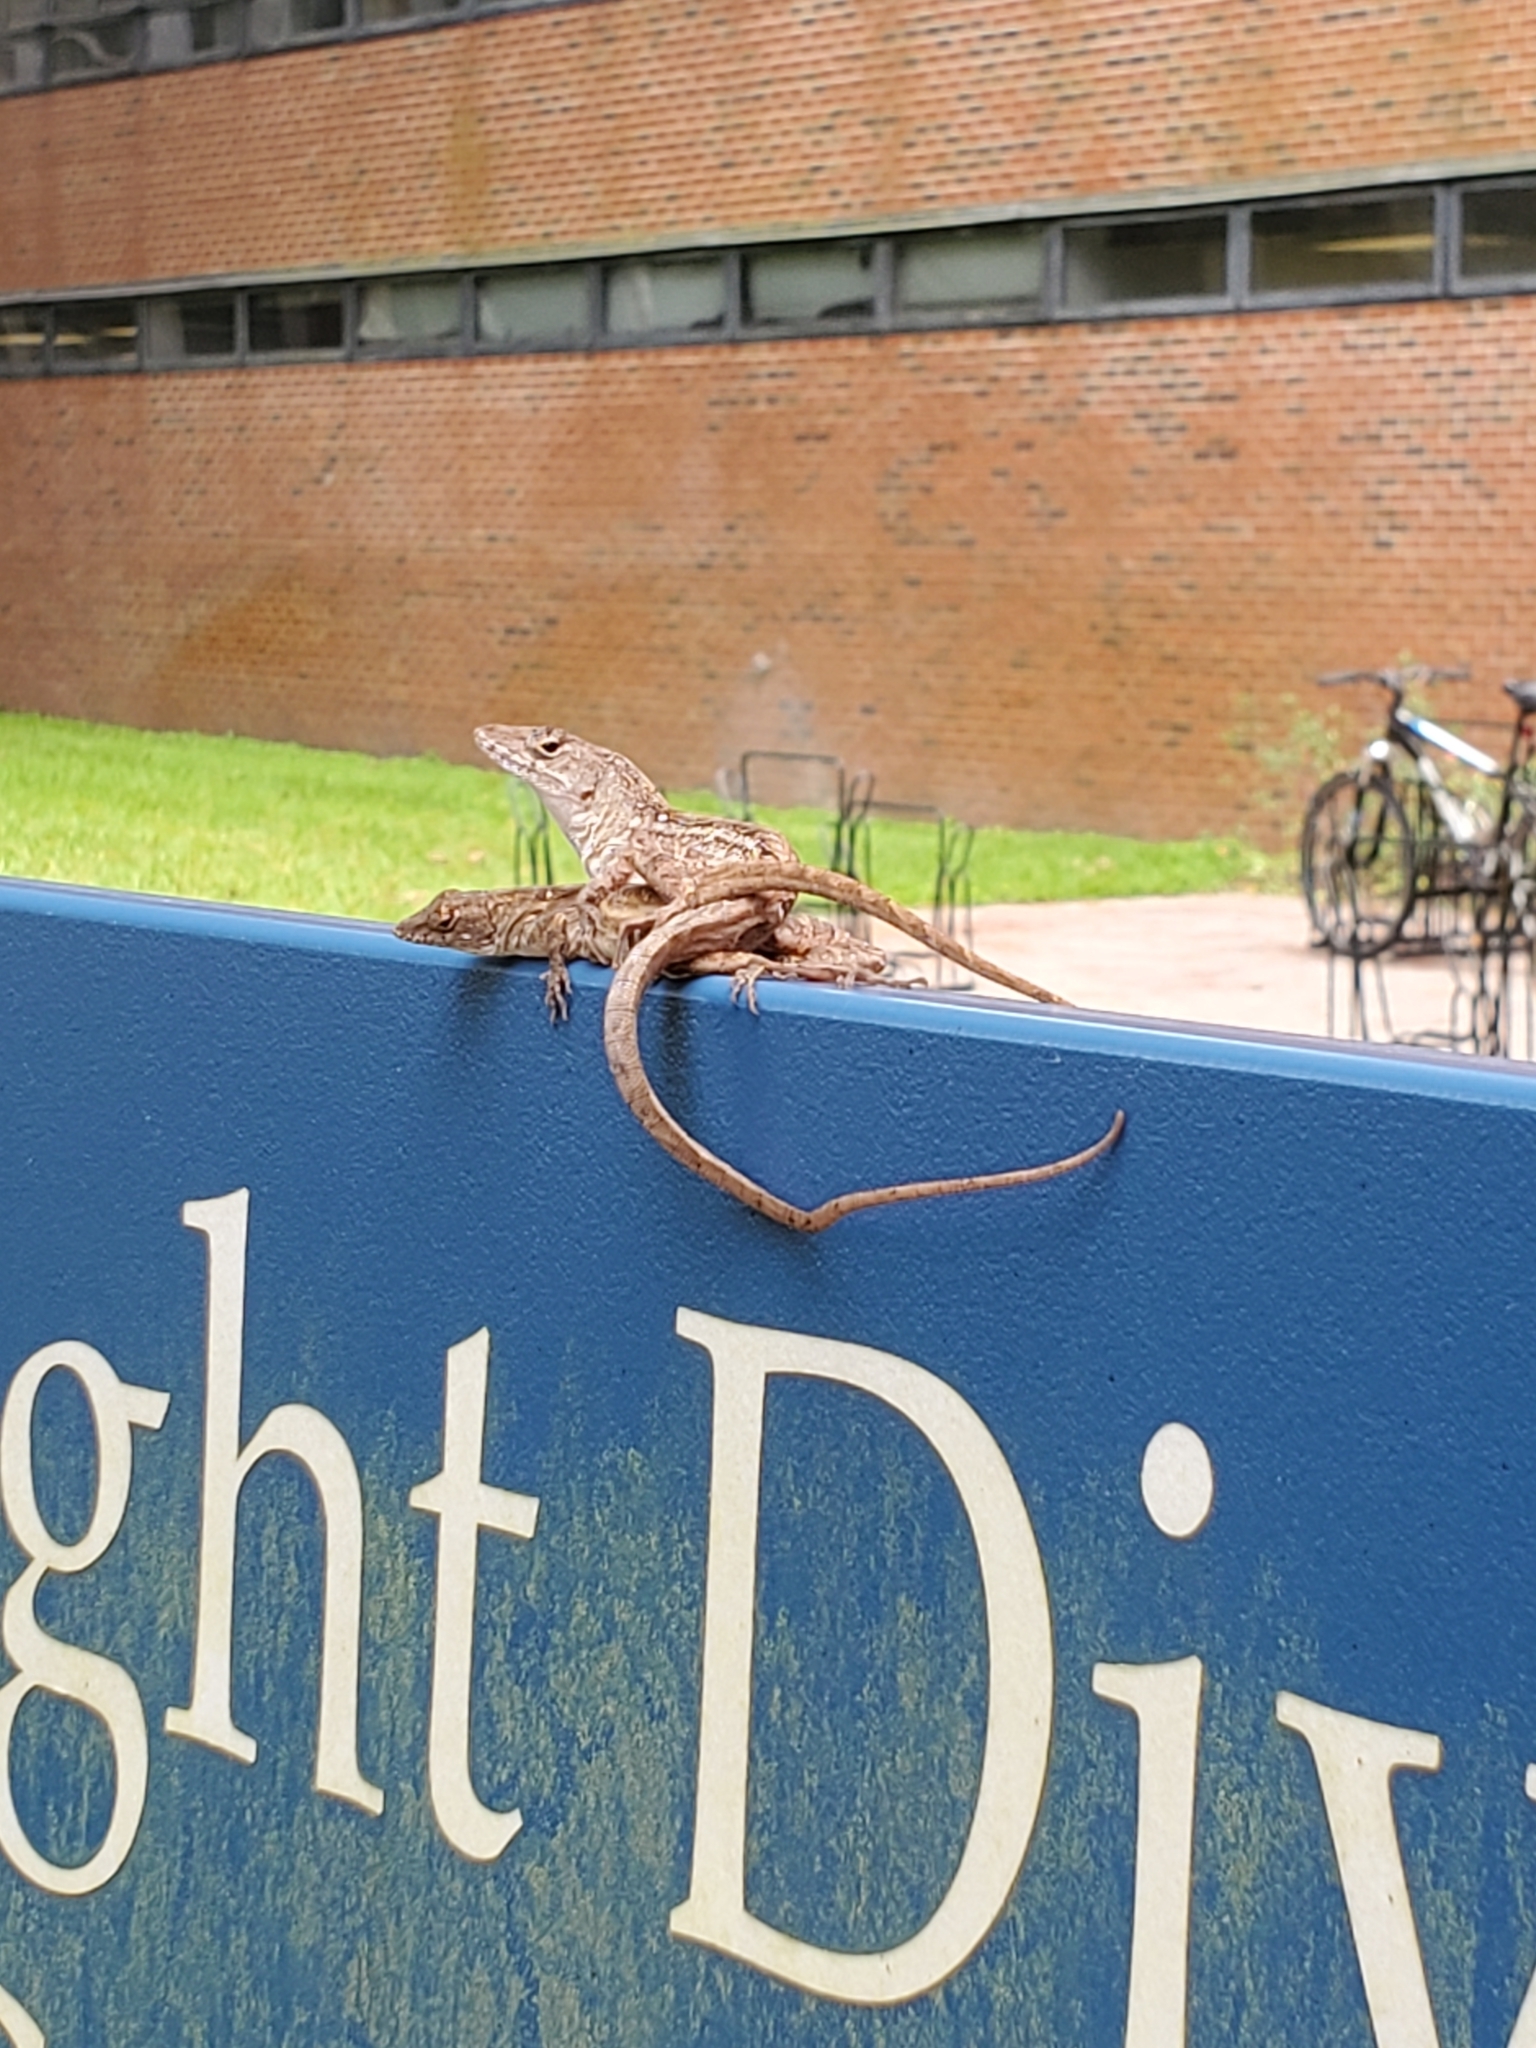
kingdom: Animalia
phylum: Chordata
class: Squamata
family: Dactyloidae
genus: Anolis
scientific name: Anolis sagrei
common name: Brown anole
